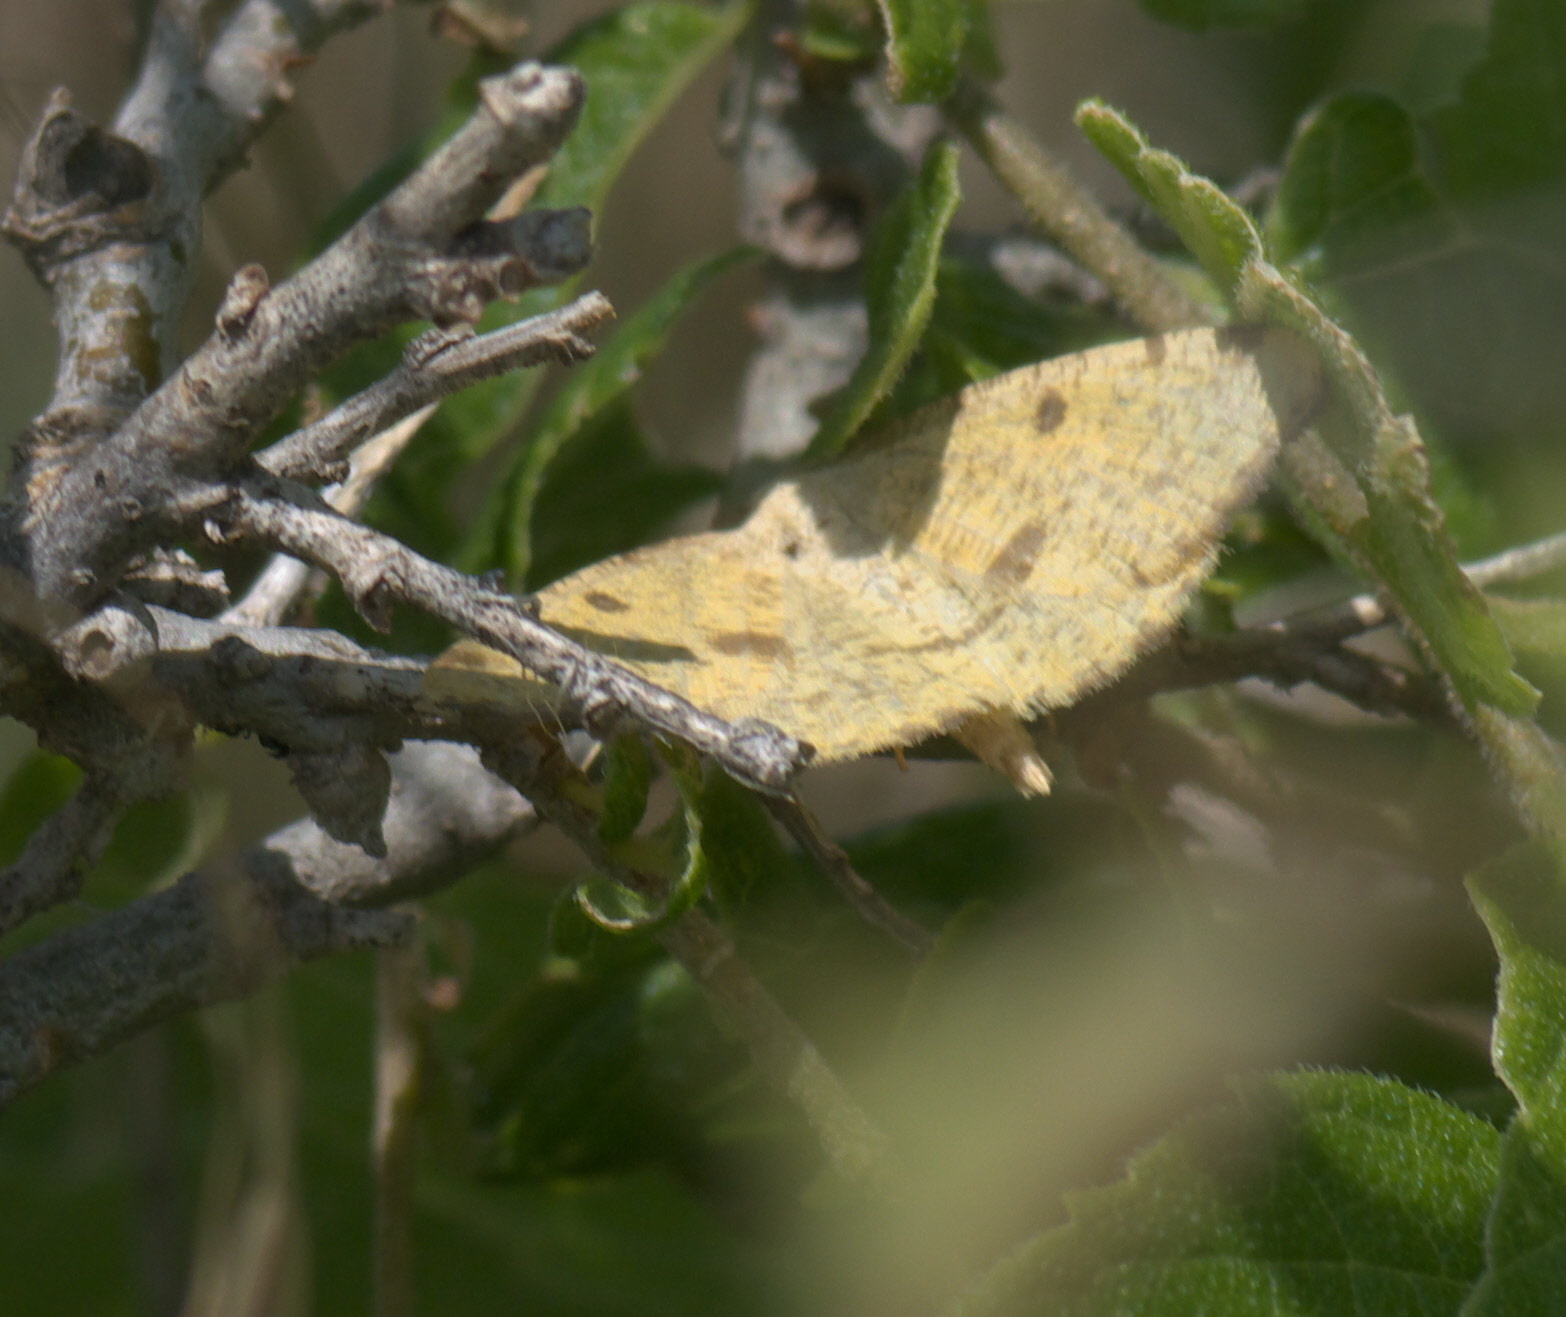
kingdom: Animalia
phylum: Arthropoda
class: Insecta
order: Lepidoptera
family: Geometridae
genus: Macaria
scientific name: Macaria amboflava
